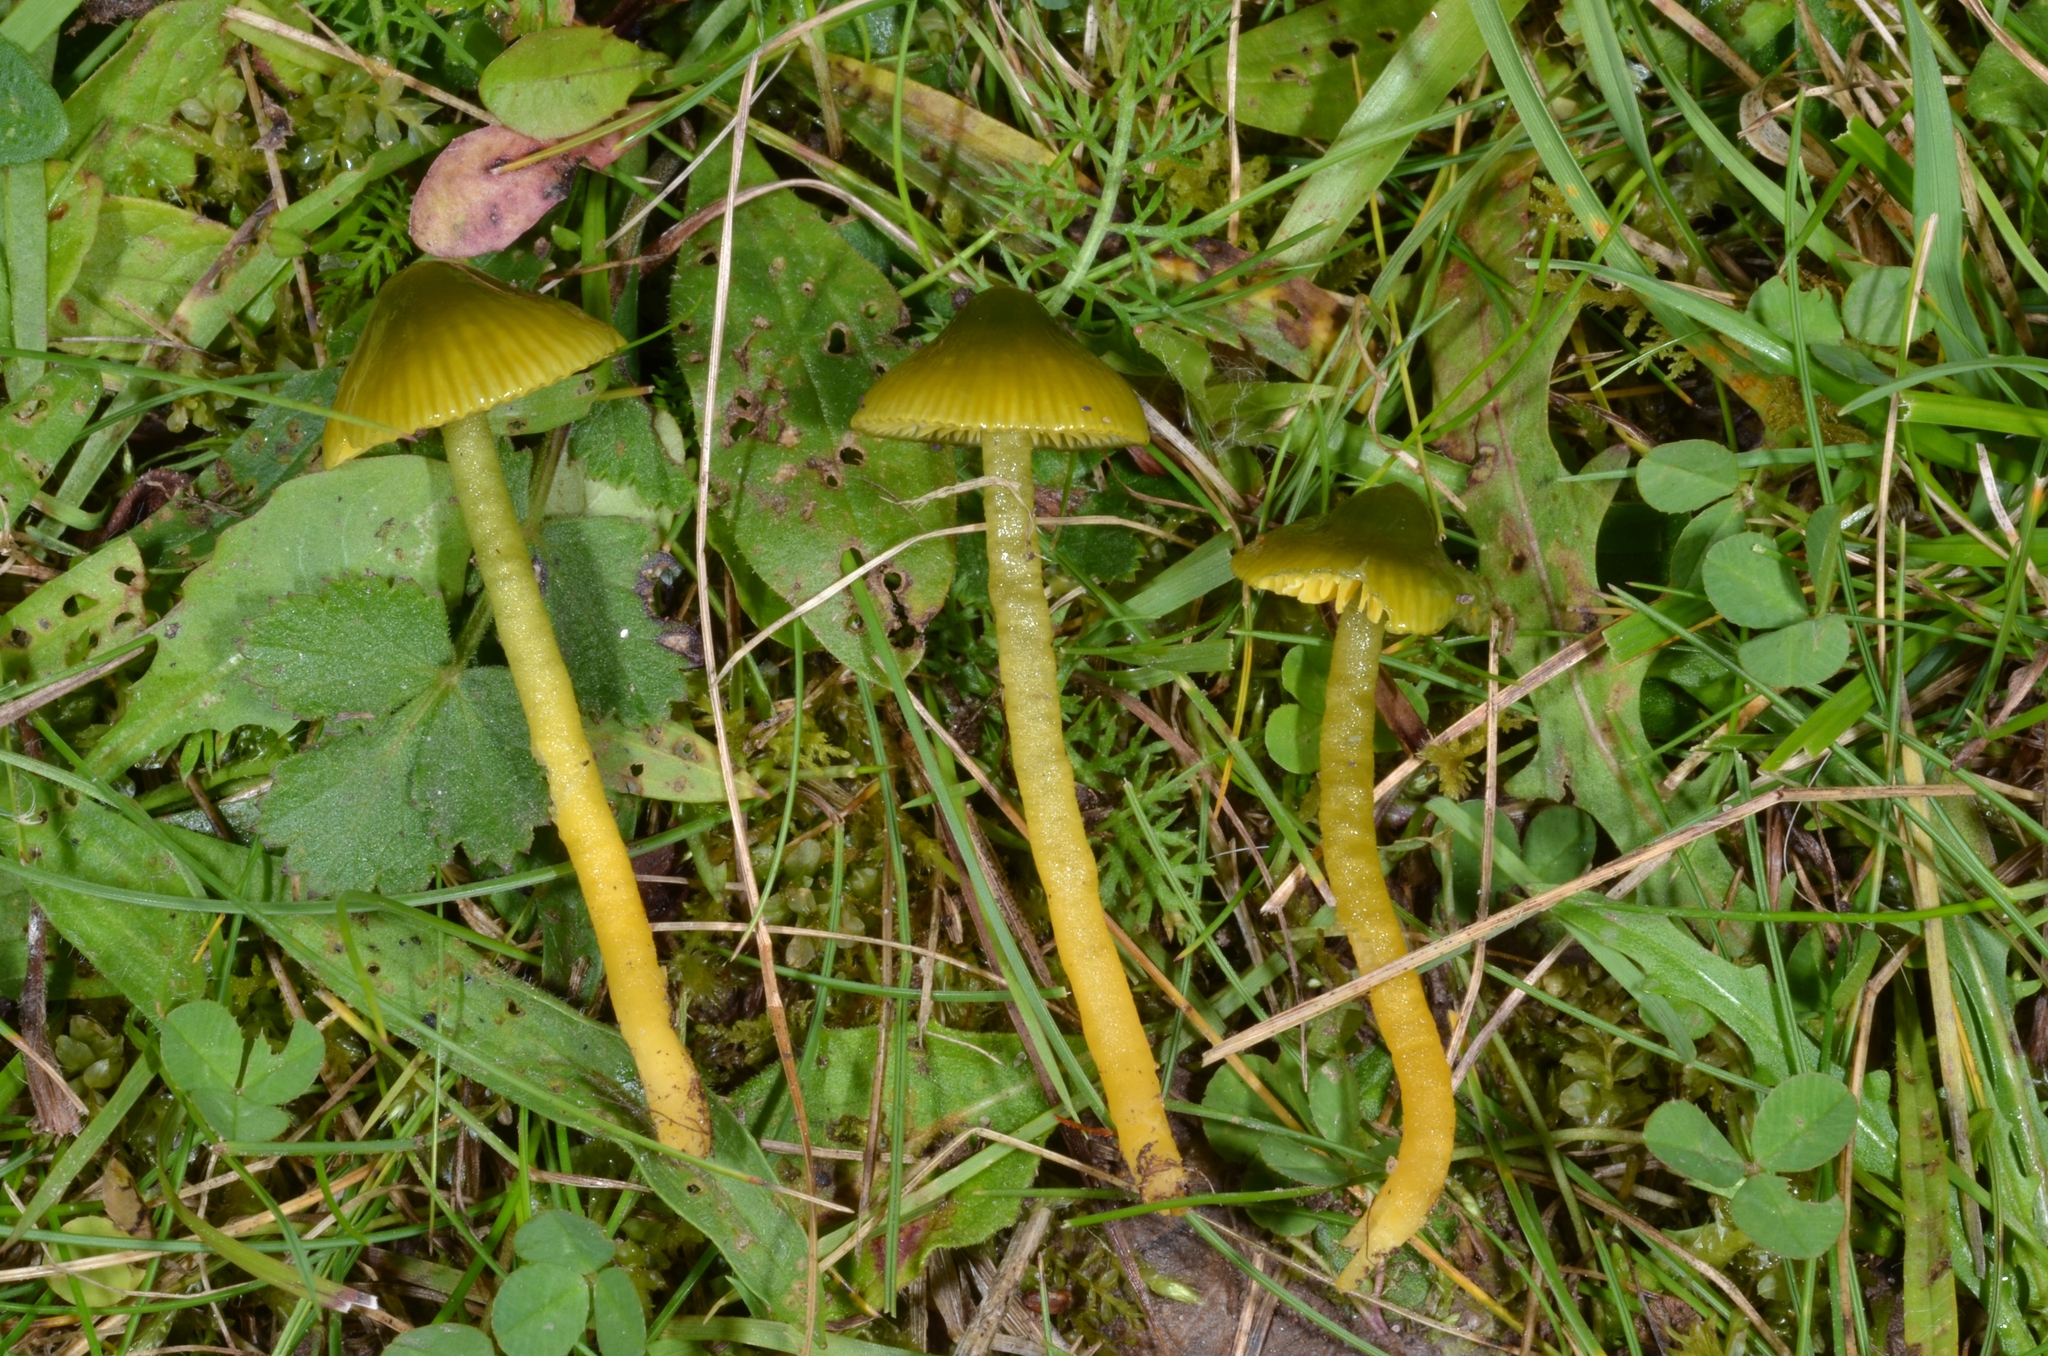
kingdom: Fungi
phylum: Basidiomycota
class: Agaricomycetes
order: Agaricales
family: Hygrophoraceae
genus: Gliophorus
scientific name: Gliophorus psittacinus
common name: Parrot wax-cap
